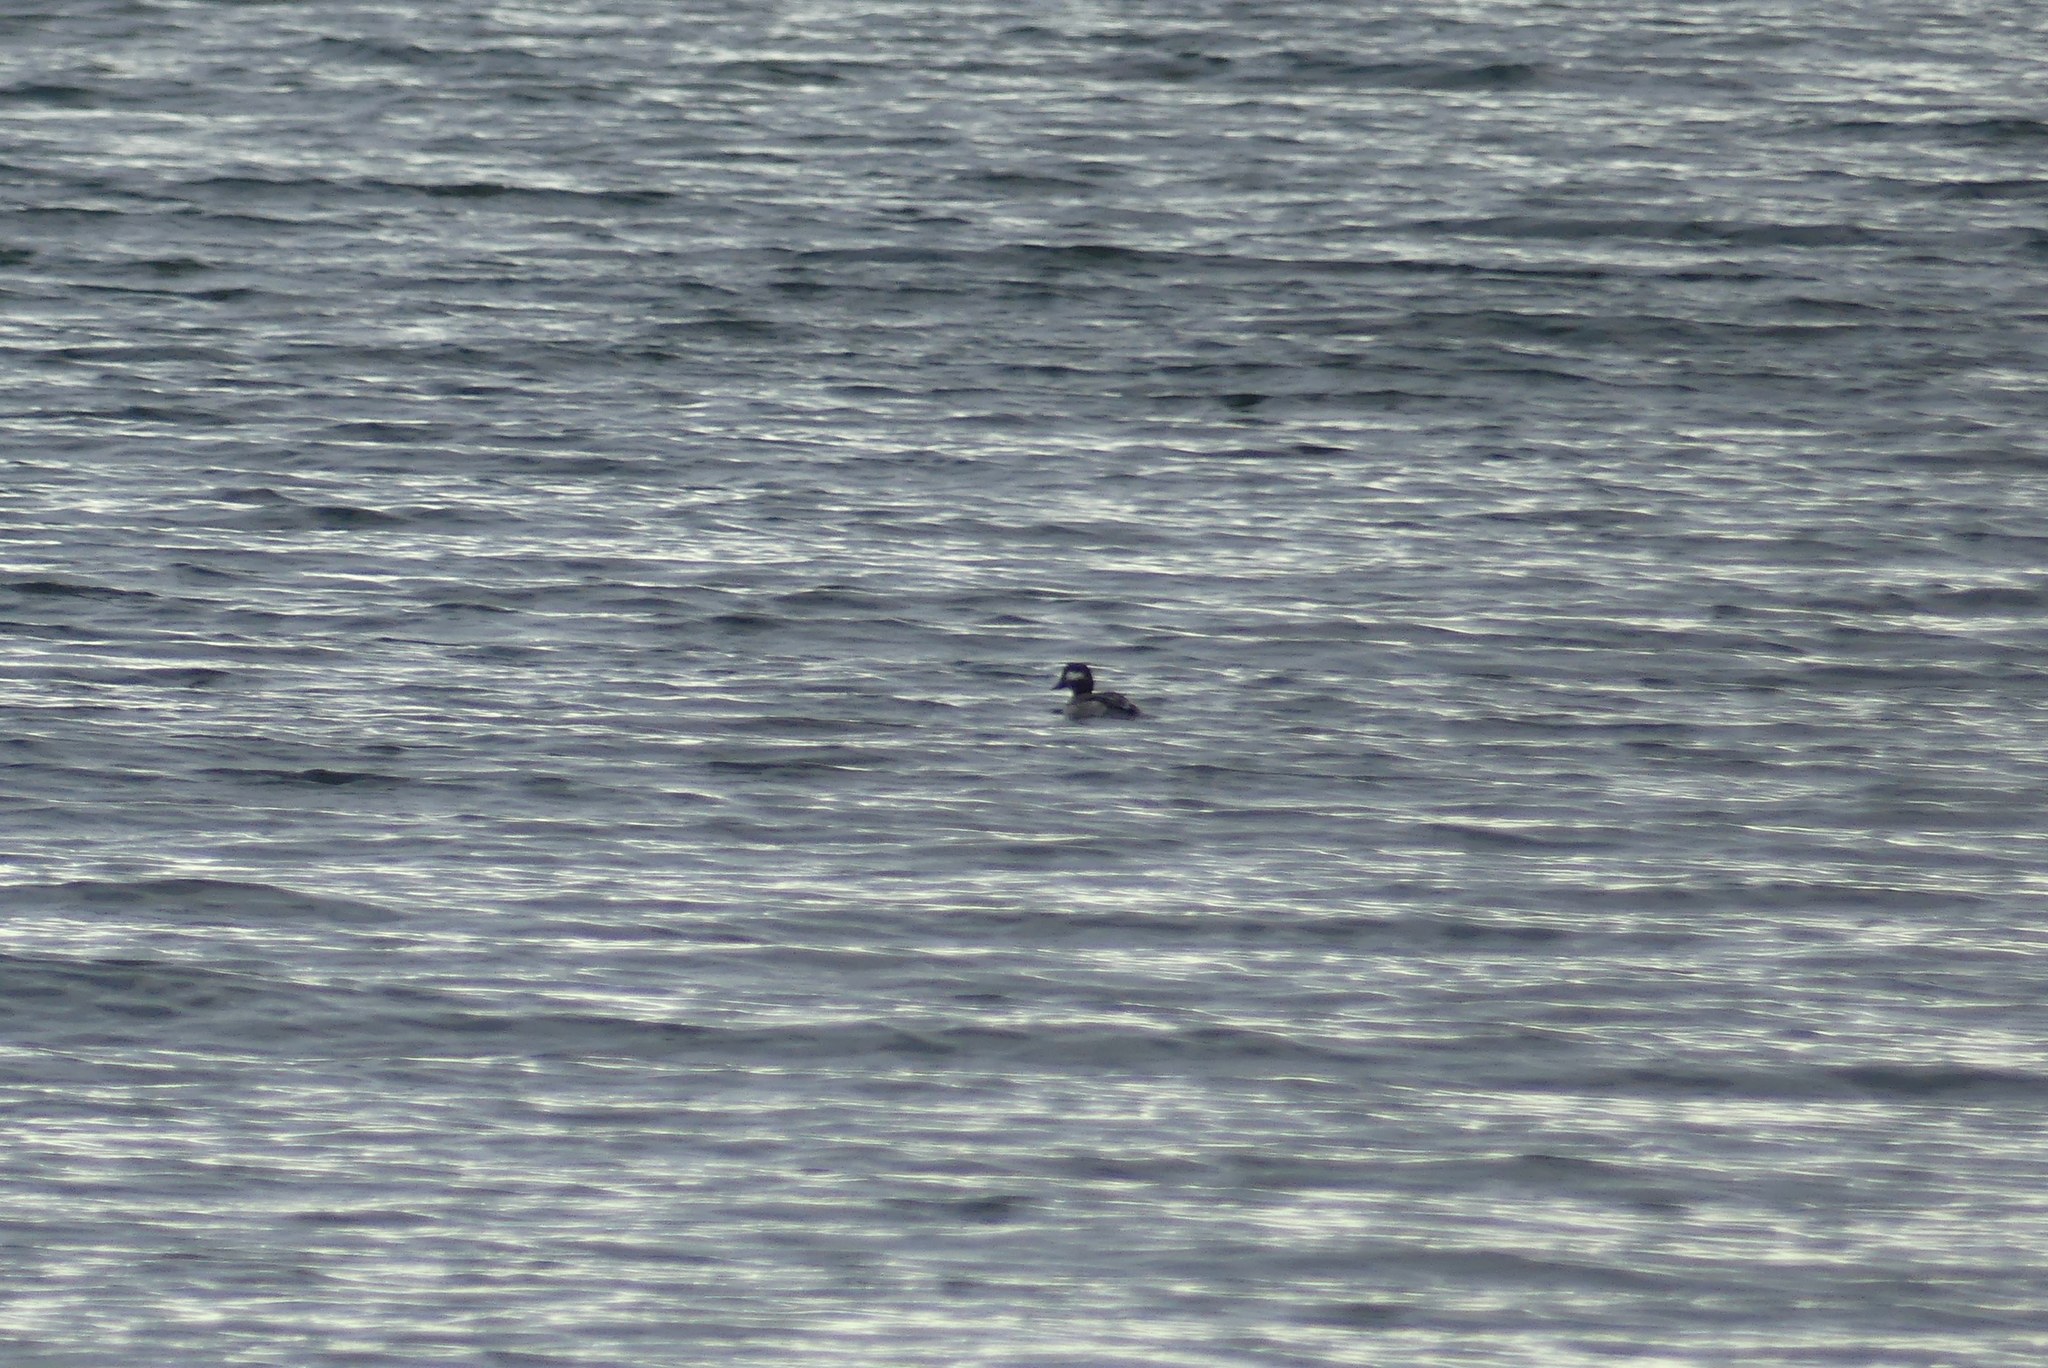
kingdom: Animalia
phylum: Chordata
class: Aves
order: Anseriformes
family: Anatidae
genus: Bucephala
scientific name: Bucephala albeola
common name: Bufflehead
